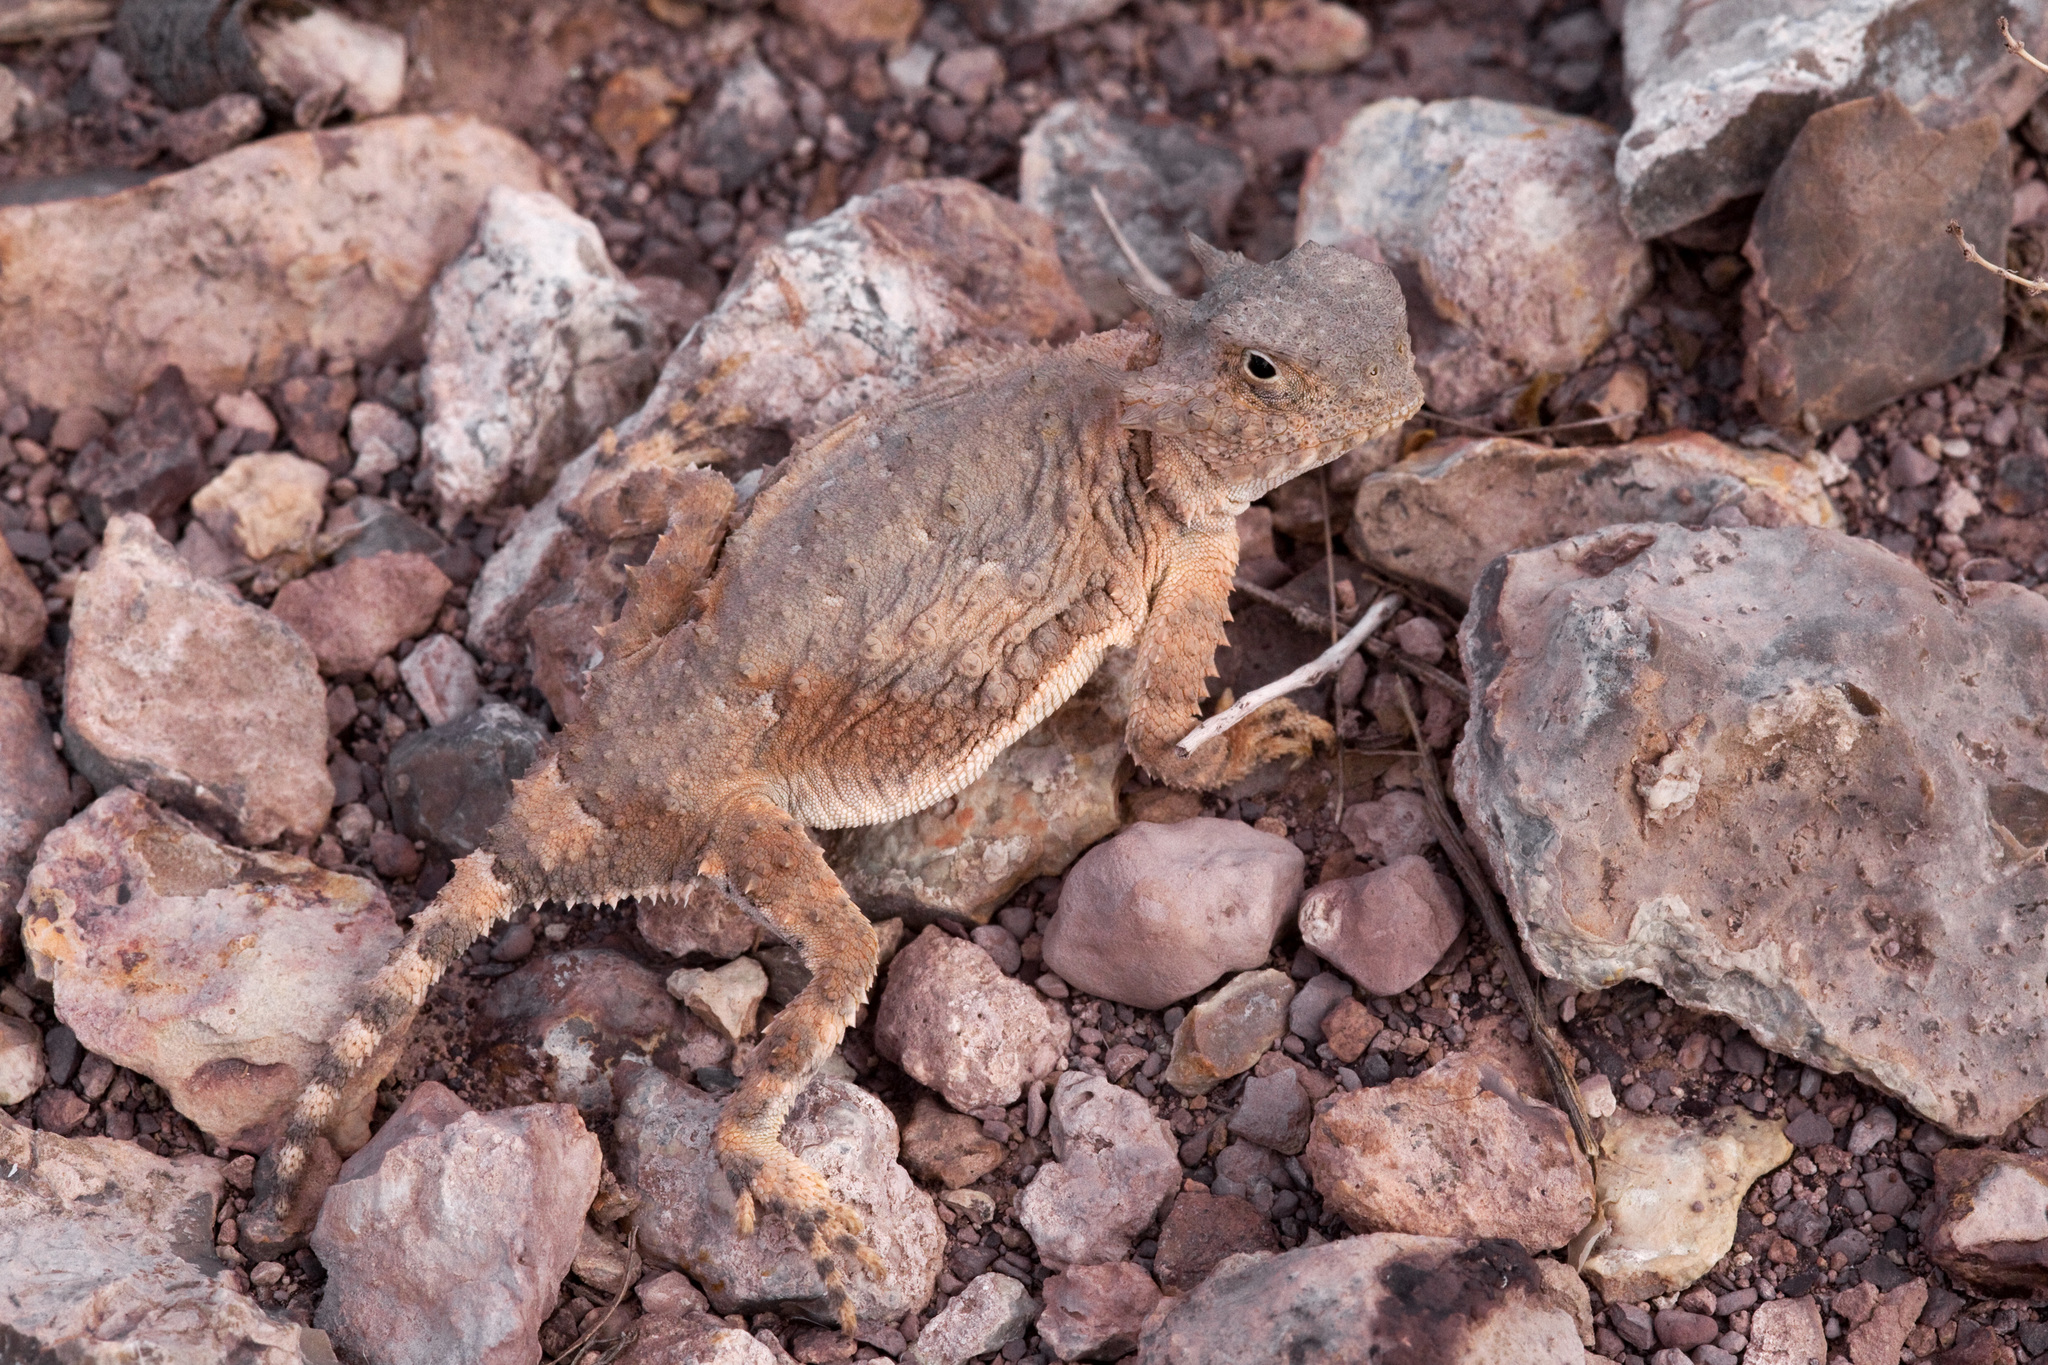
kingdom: Animalia
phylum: Chordata
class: Squamata
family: Phrynosomatidae
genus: Phrynosoma
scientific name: Phrynosoma modestum
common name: Roundtail horned lizard
